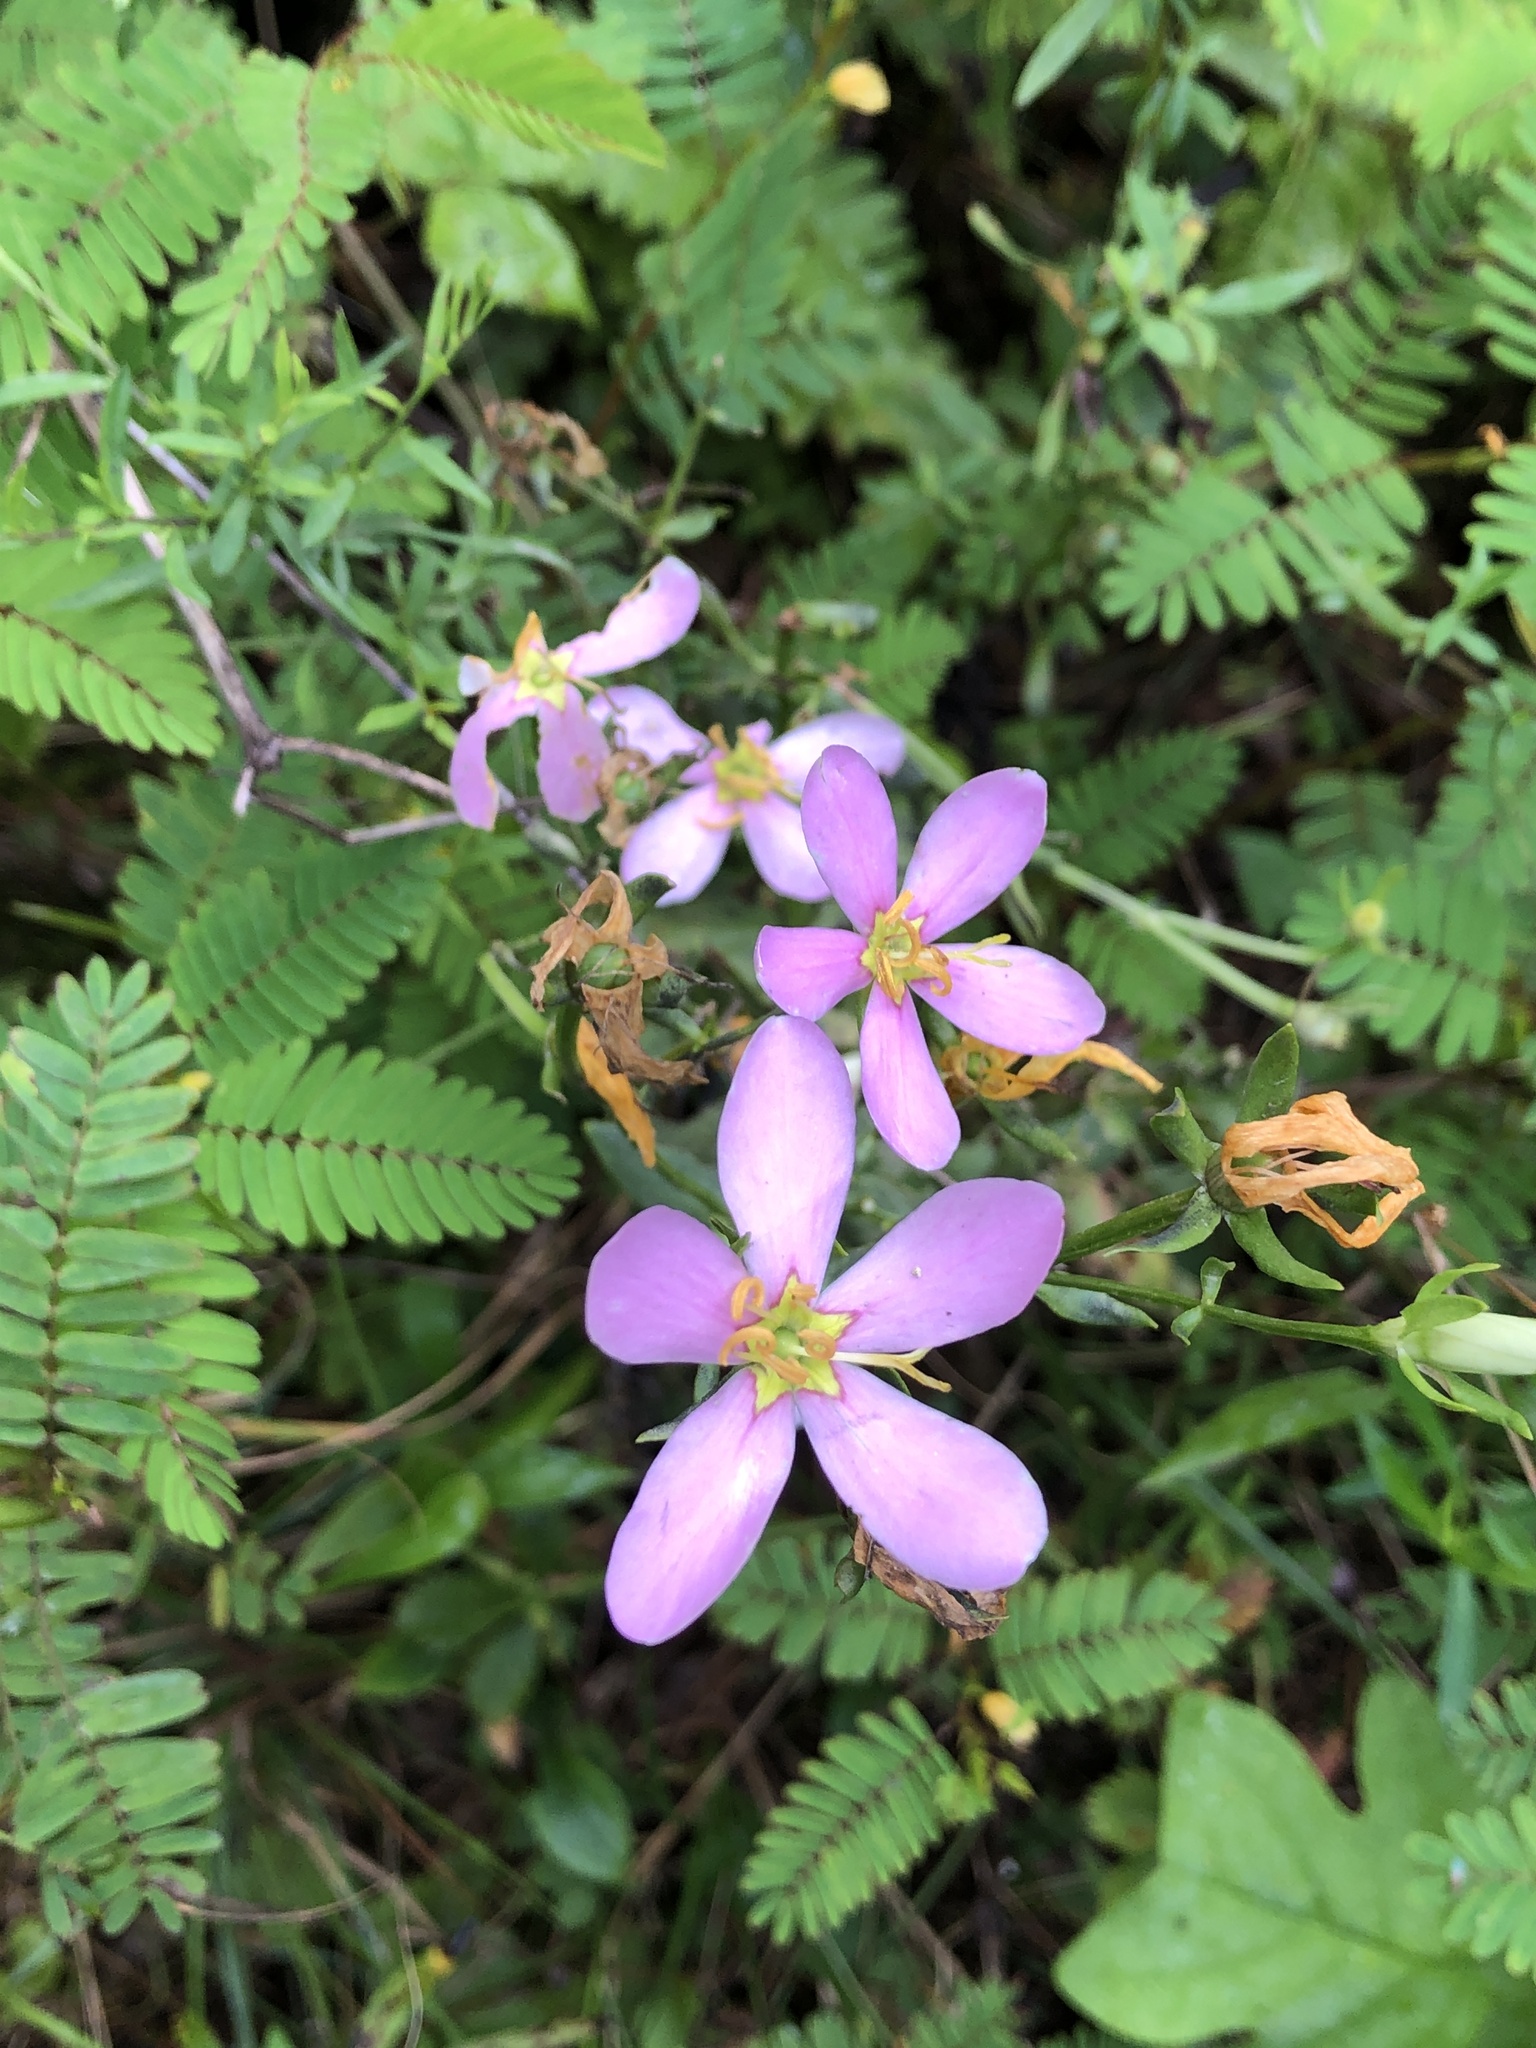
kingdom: Plantae
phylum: Tracheophyta
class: Magnoliopsida
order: Gentianales
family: Gentianaceae
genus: Sabatia
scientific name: Sabatia angularis
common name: Rose-pink
